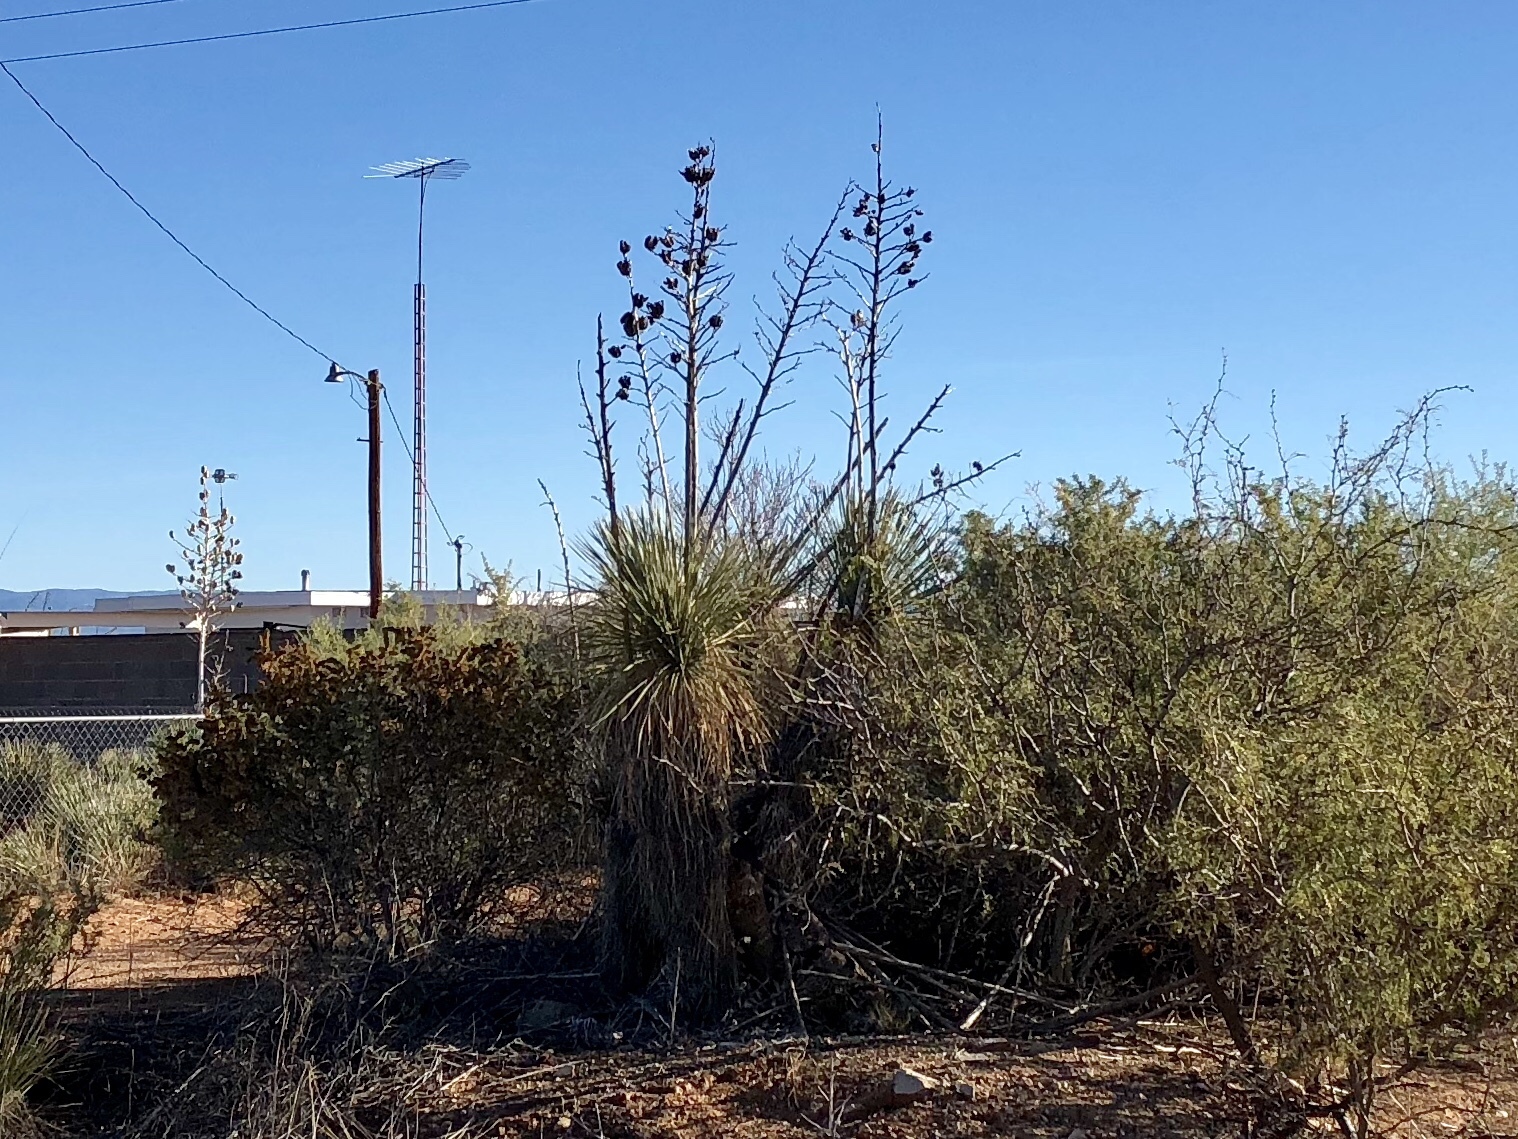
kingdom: Plantae
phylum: Tracheophyta
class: Liliopsida
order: Asparagales
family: Asparagaceae
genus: Yucca
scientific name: Yucca elata
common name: Palmella
